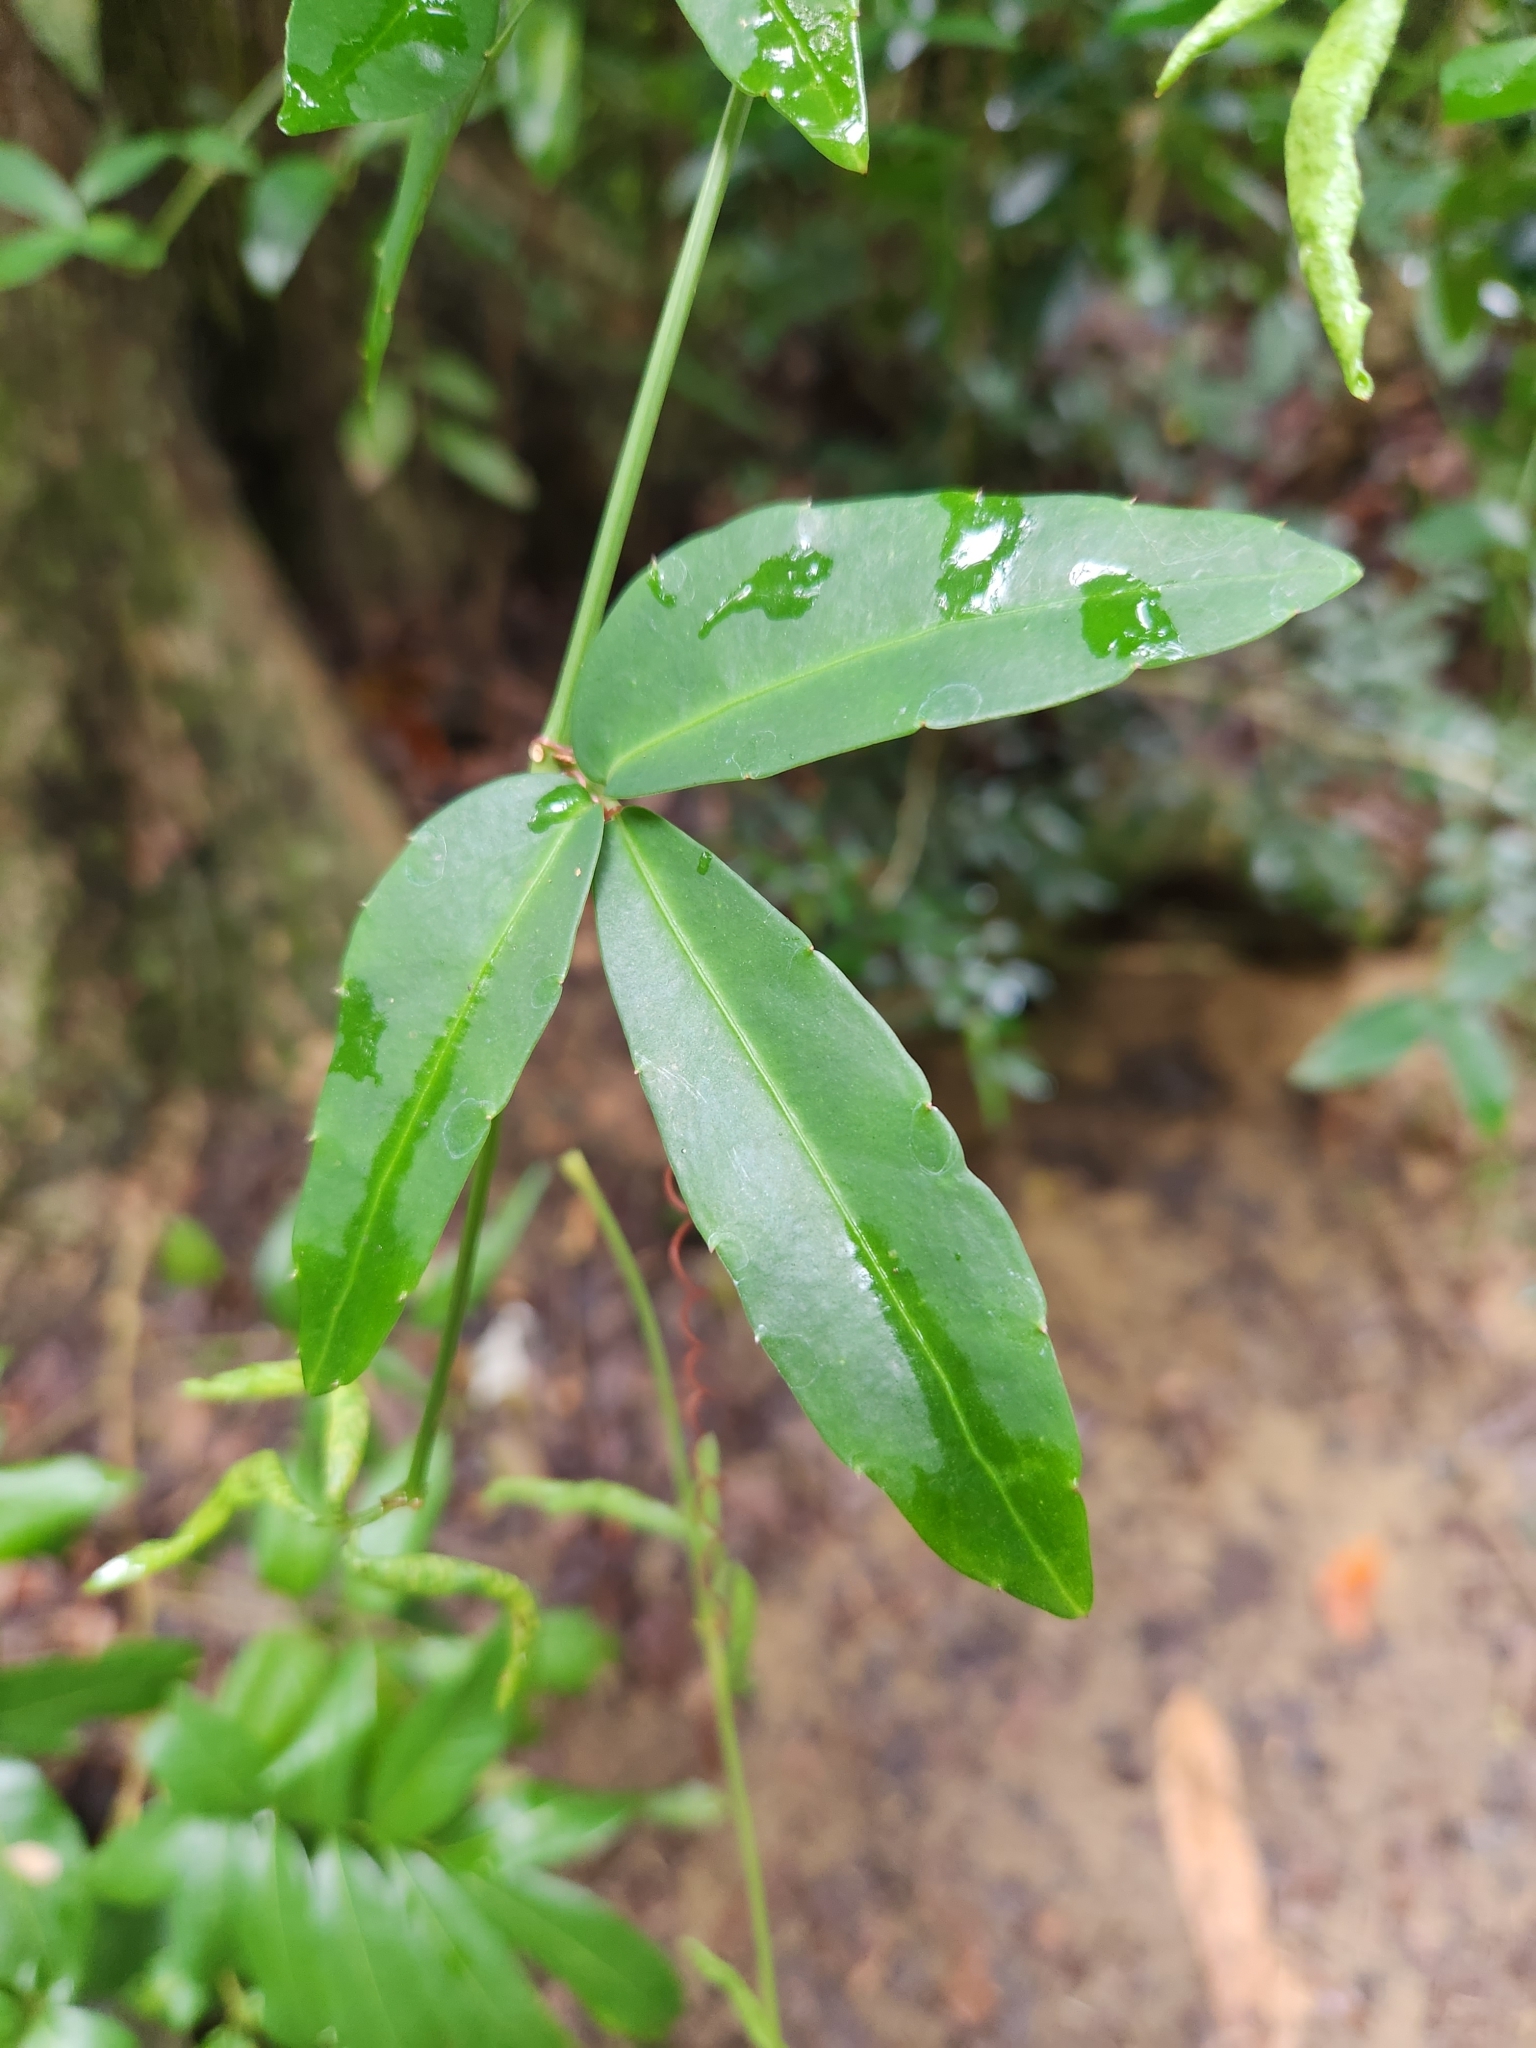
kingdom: Plantae
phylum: Tracheophyta
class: Magnoliopsida
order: Vitales
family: Vitaceae
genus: Tetrastigma
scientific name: Tetrastigma formosanum
